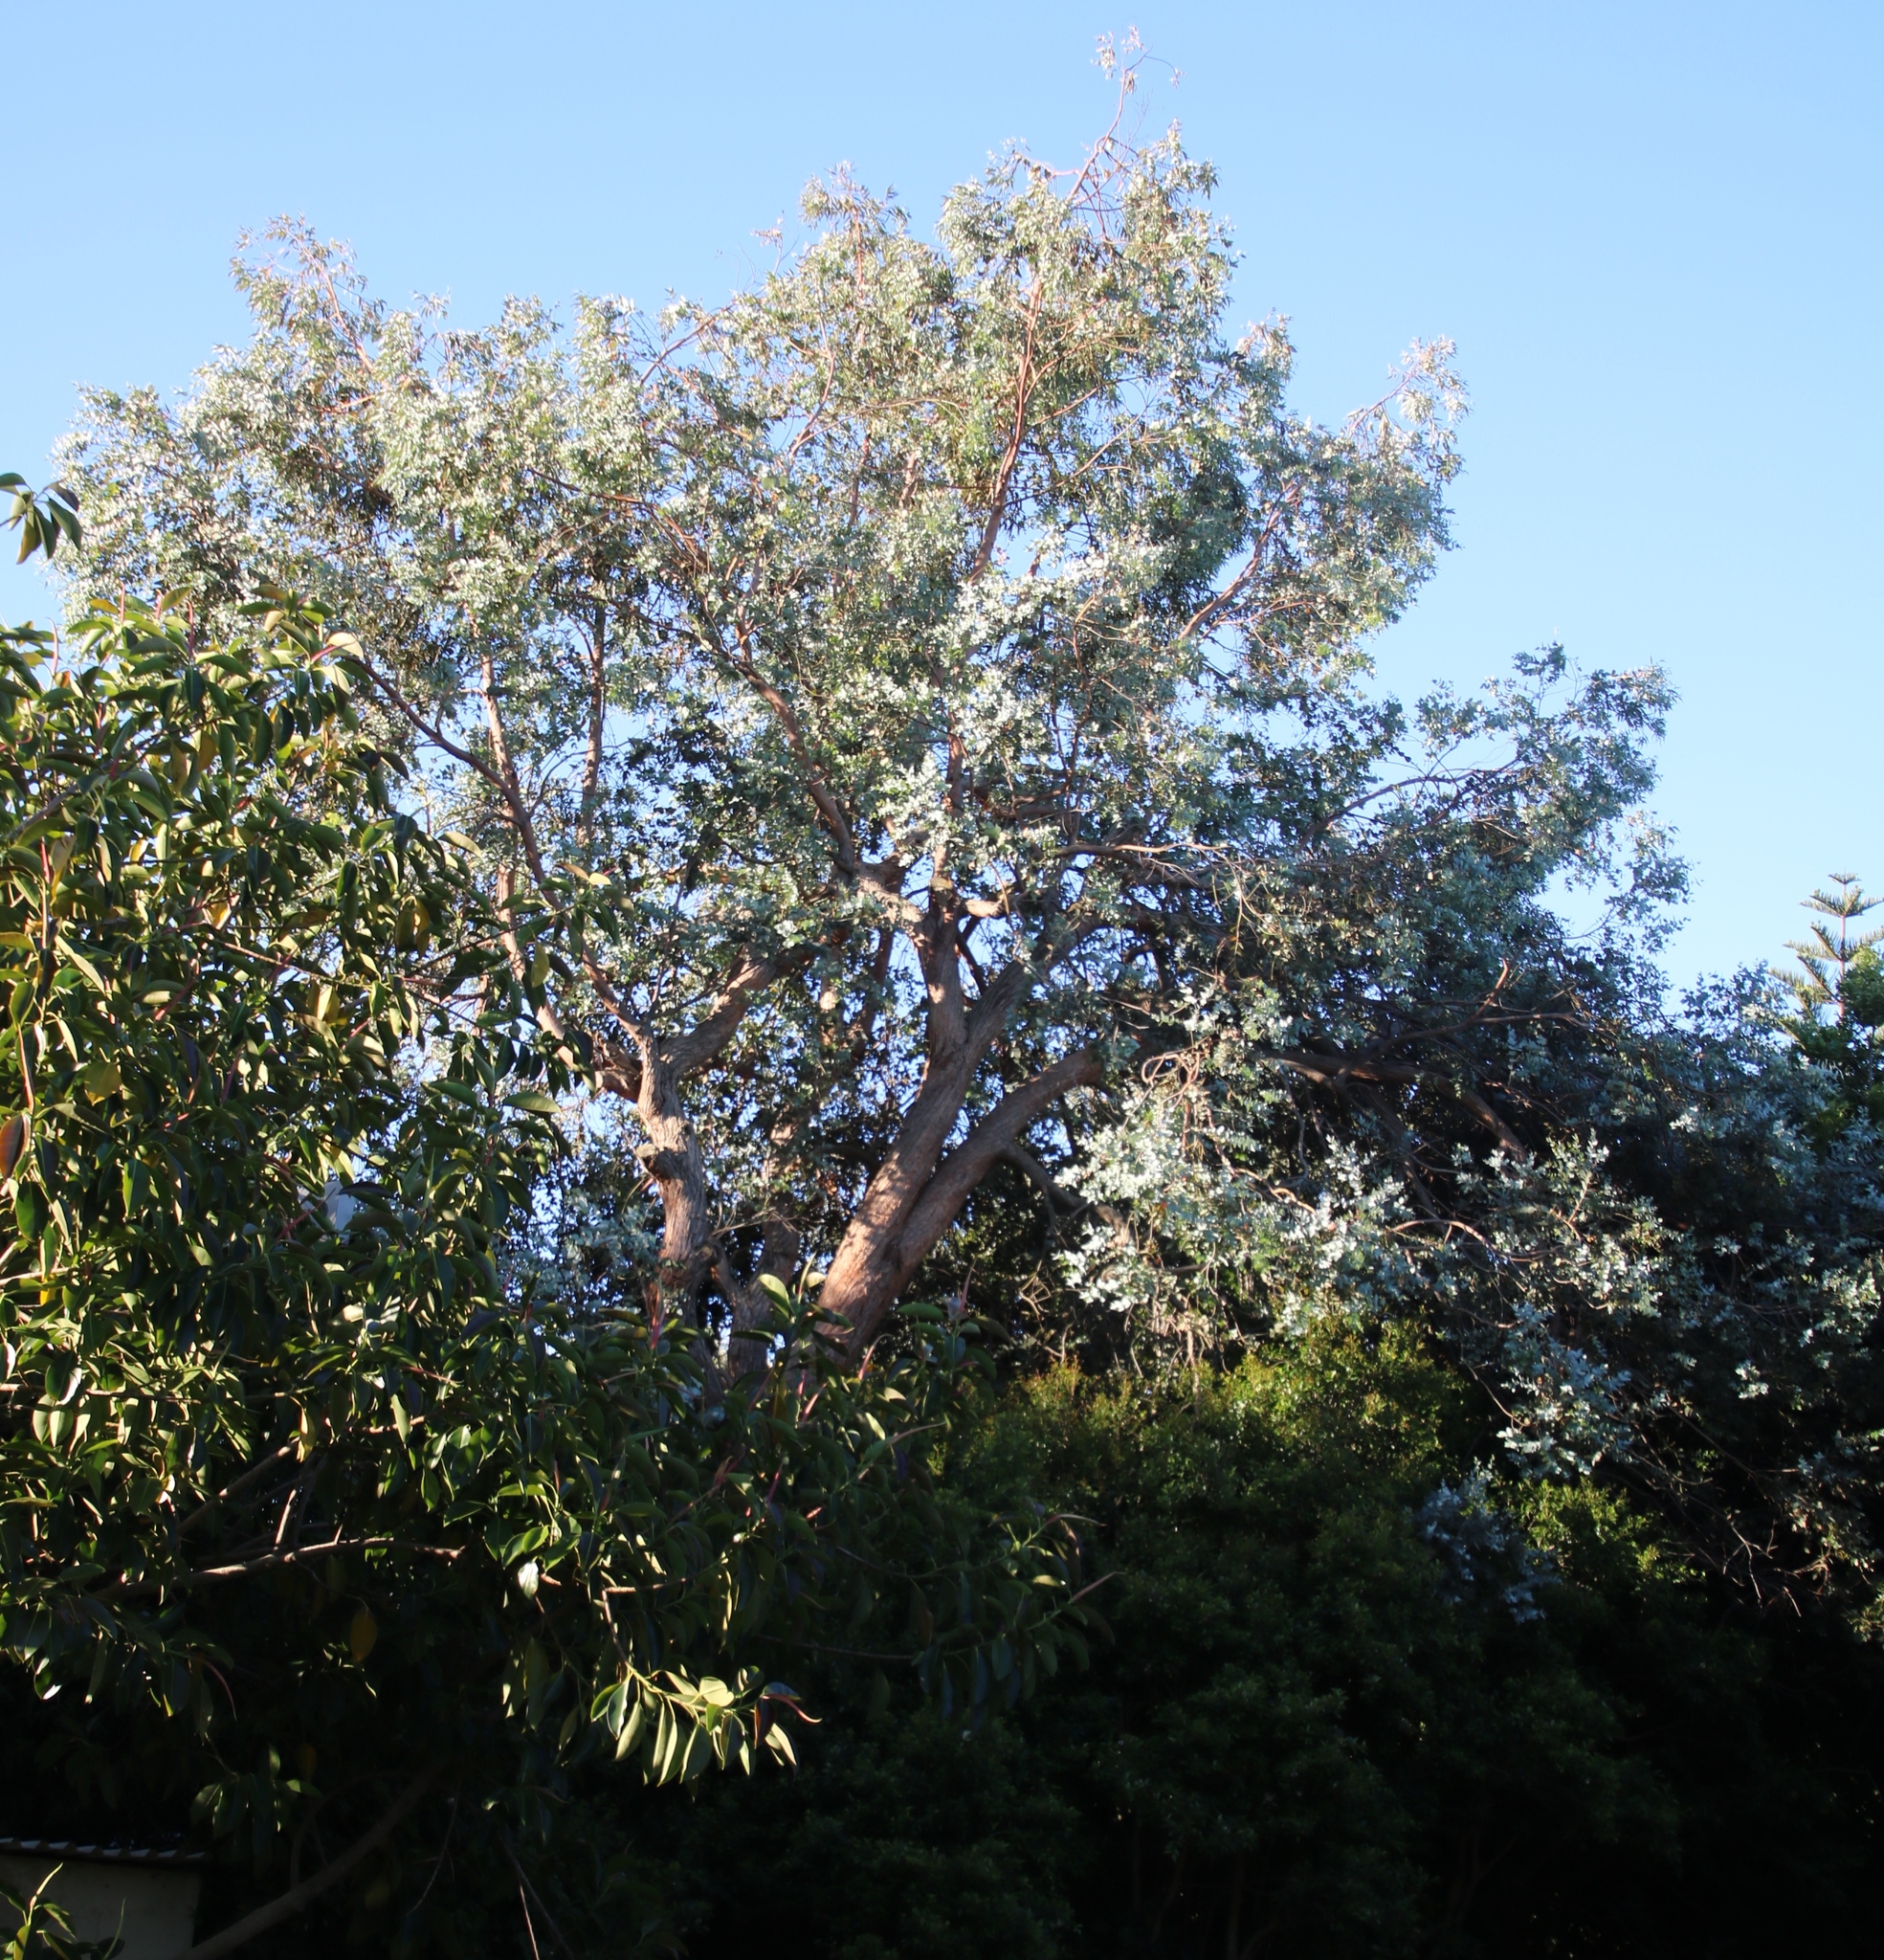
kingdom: Plantae
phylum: Tracheophyta
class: Magnoliopsida
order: Myrtales
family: Myrtaceae
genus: Eucalyptus
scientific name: Eucalyptus cinerea
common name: Argyle apple
